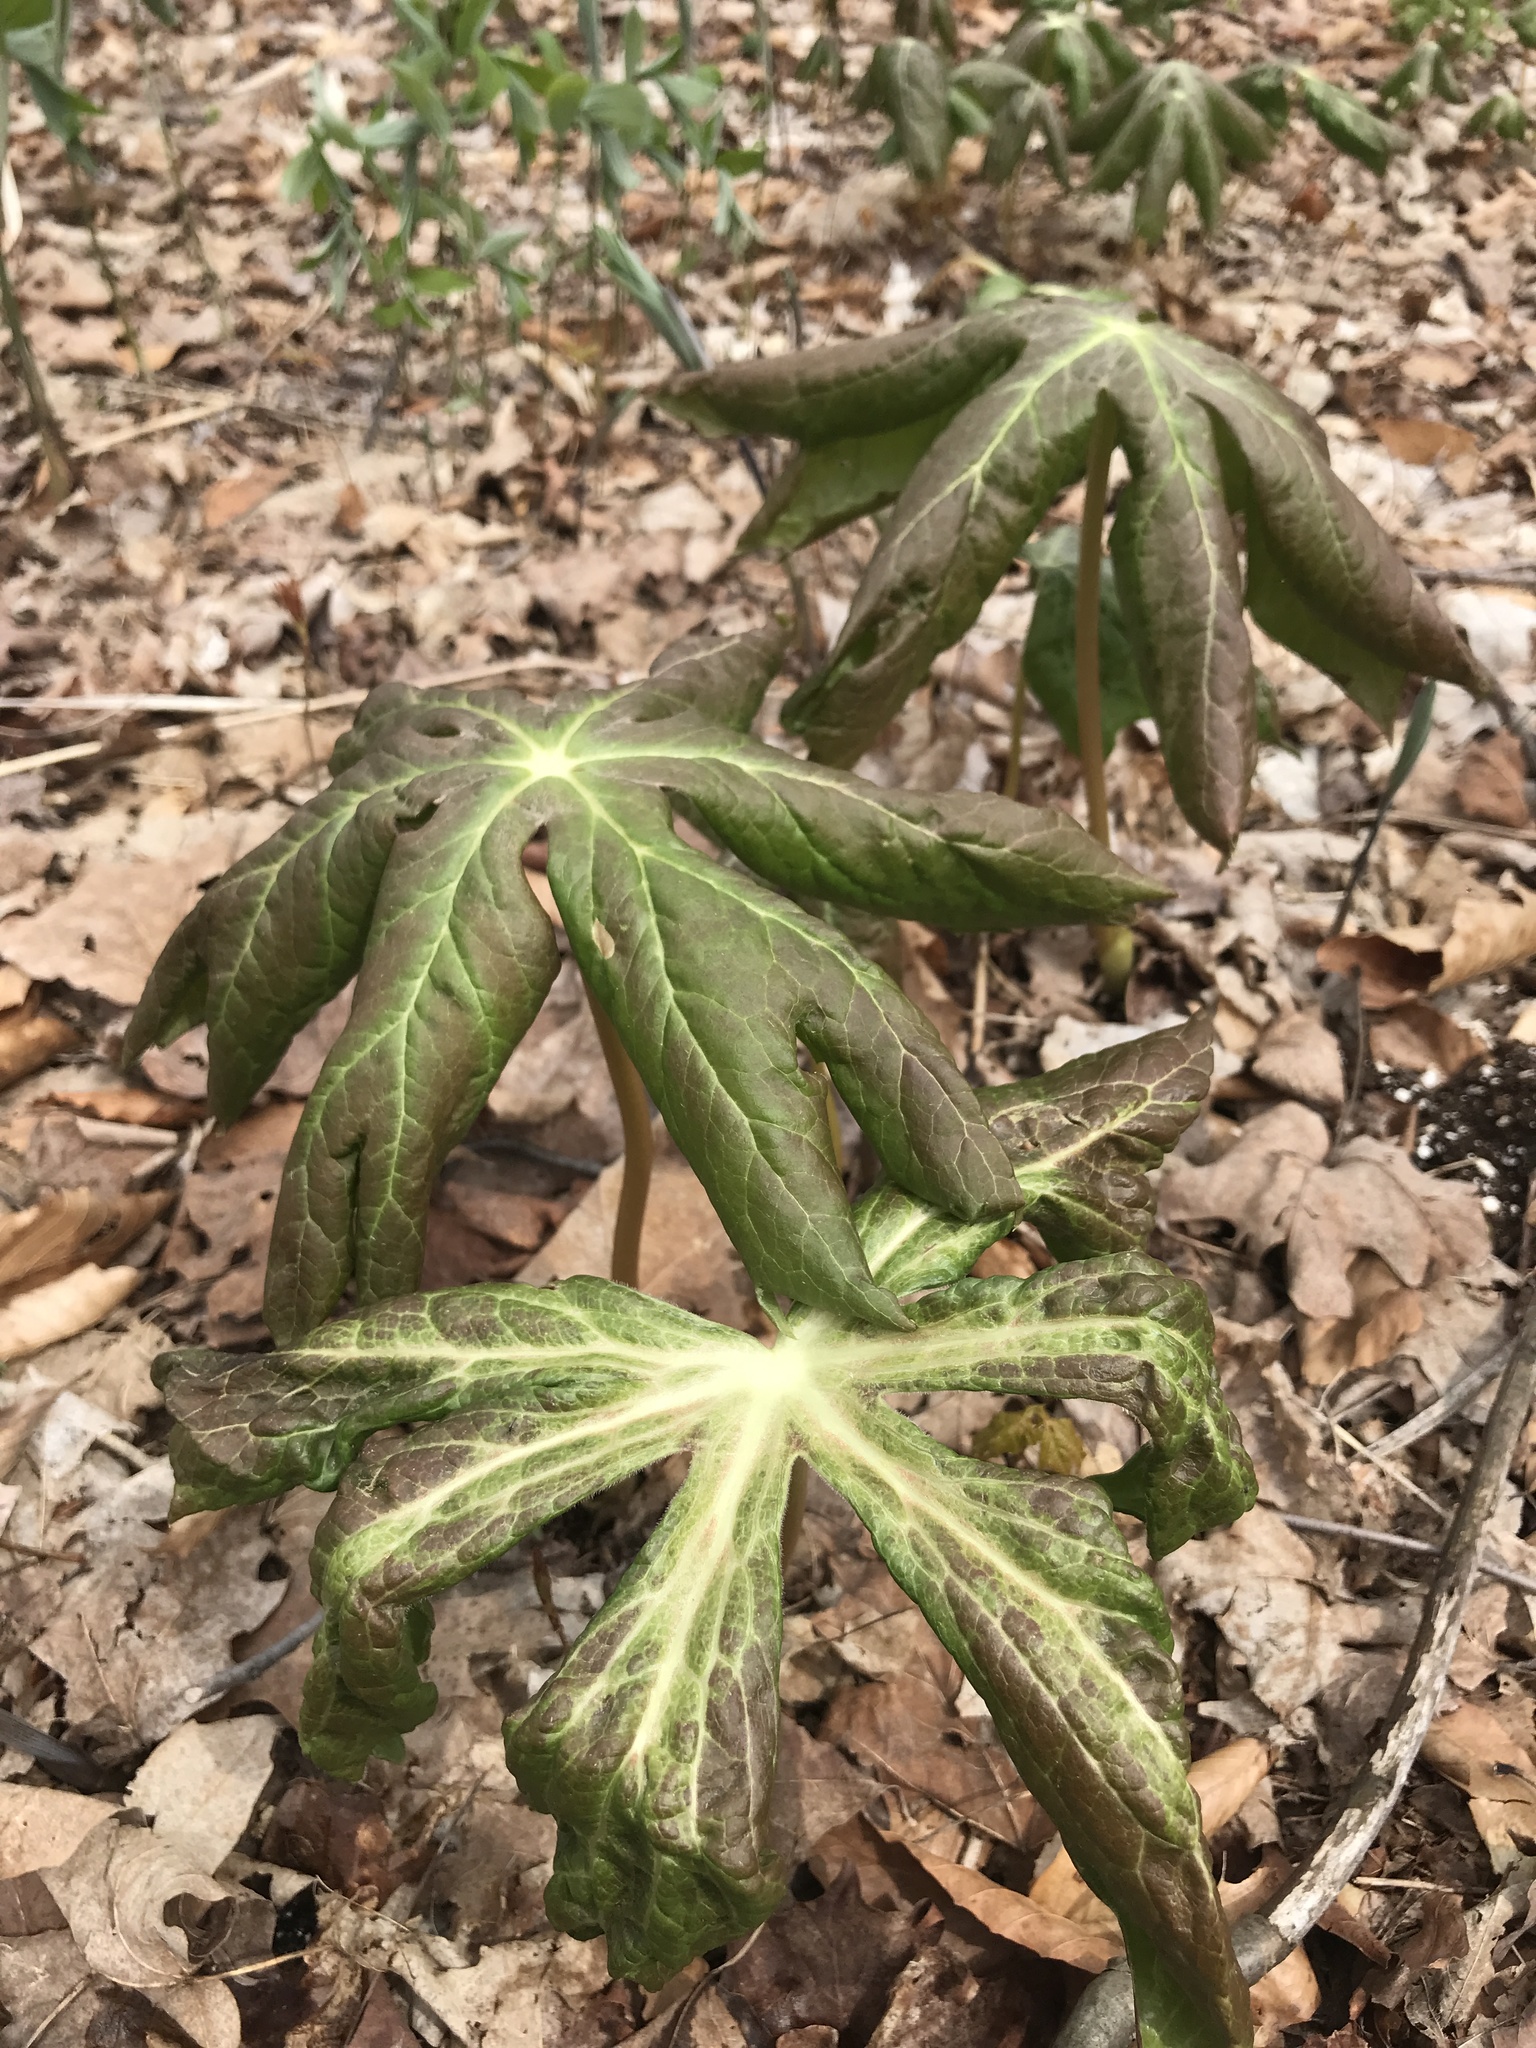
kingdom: Plantae
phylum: Tracheophyta
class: Magnoliopsida
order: Ranunculales
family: Berberidaceae
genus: Podophyllum
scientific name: Podophyllum peltatum
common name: Wild mandrake
